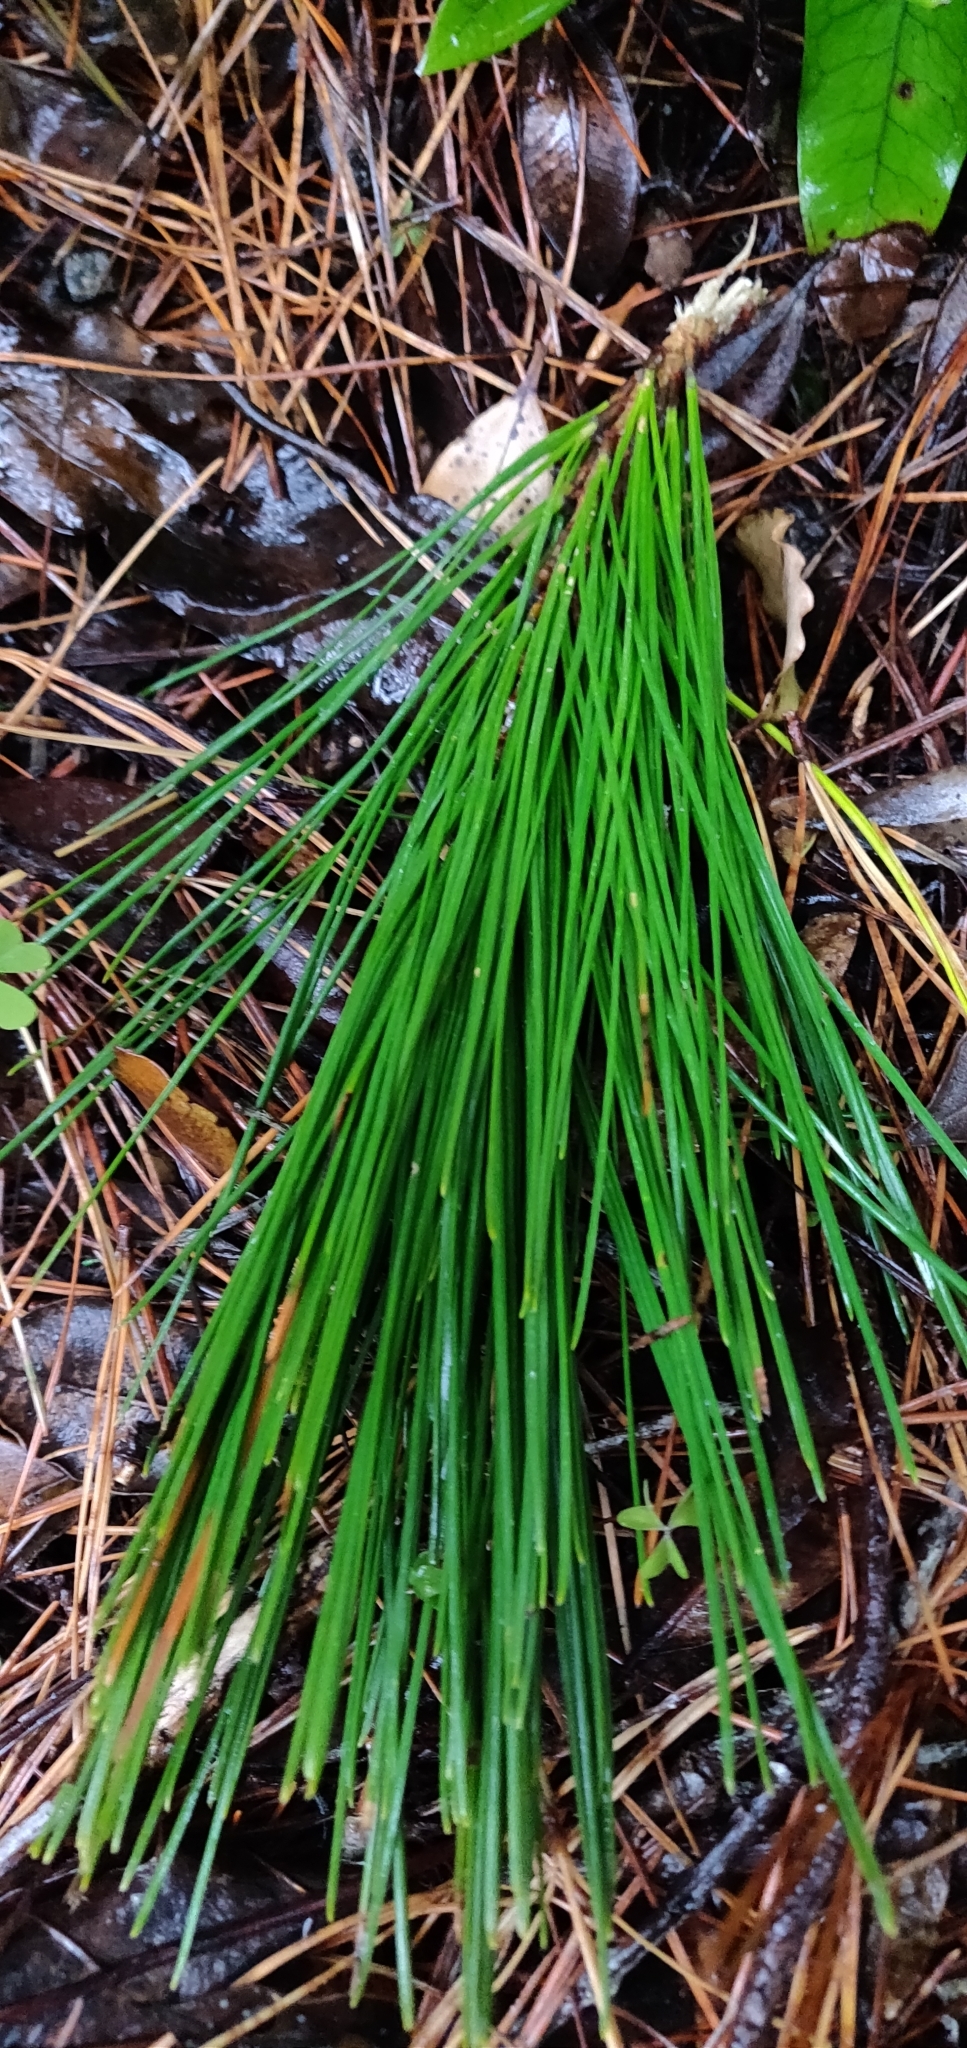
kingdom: Plantae
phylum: Tracheophyta
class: Pinopsida
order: Pinales
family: Pinaceae
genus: Pinus
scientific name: Pinus radiata
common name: Monterey pine
